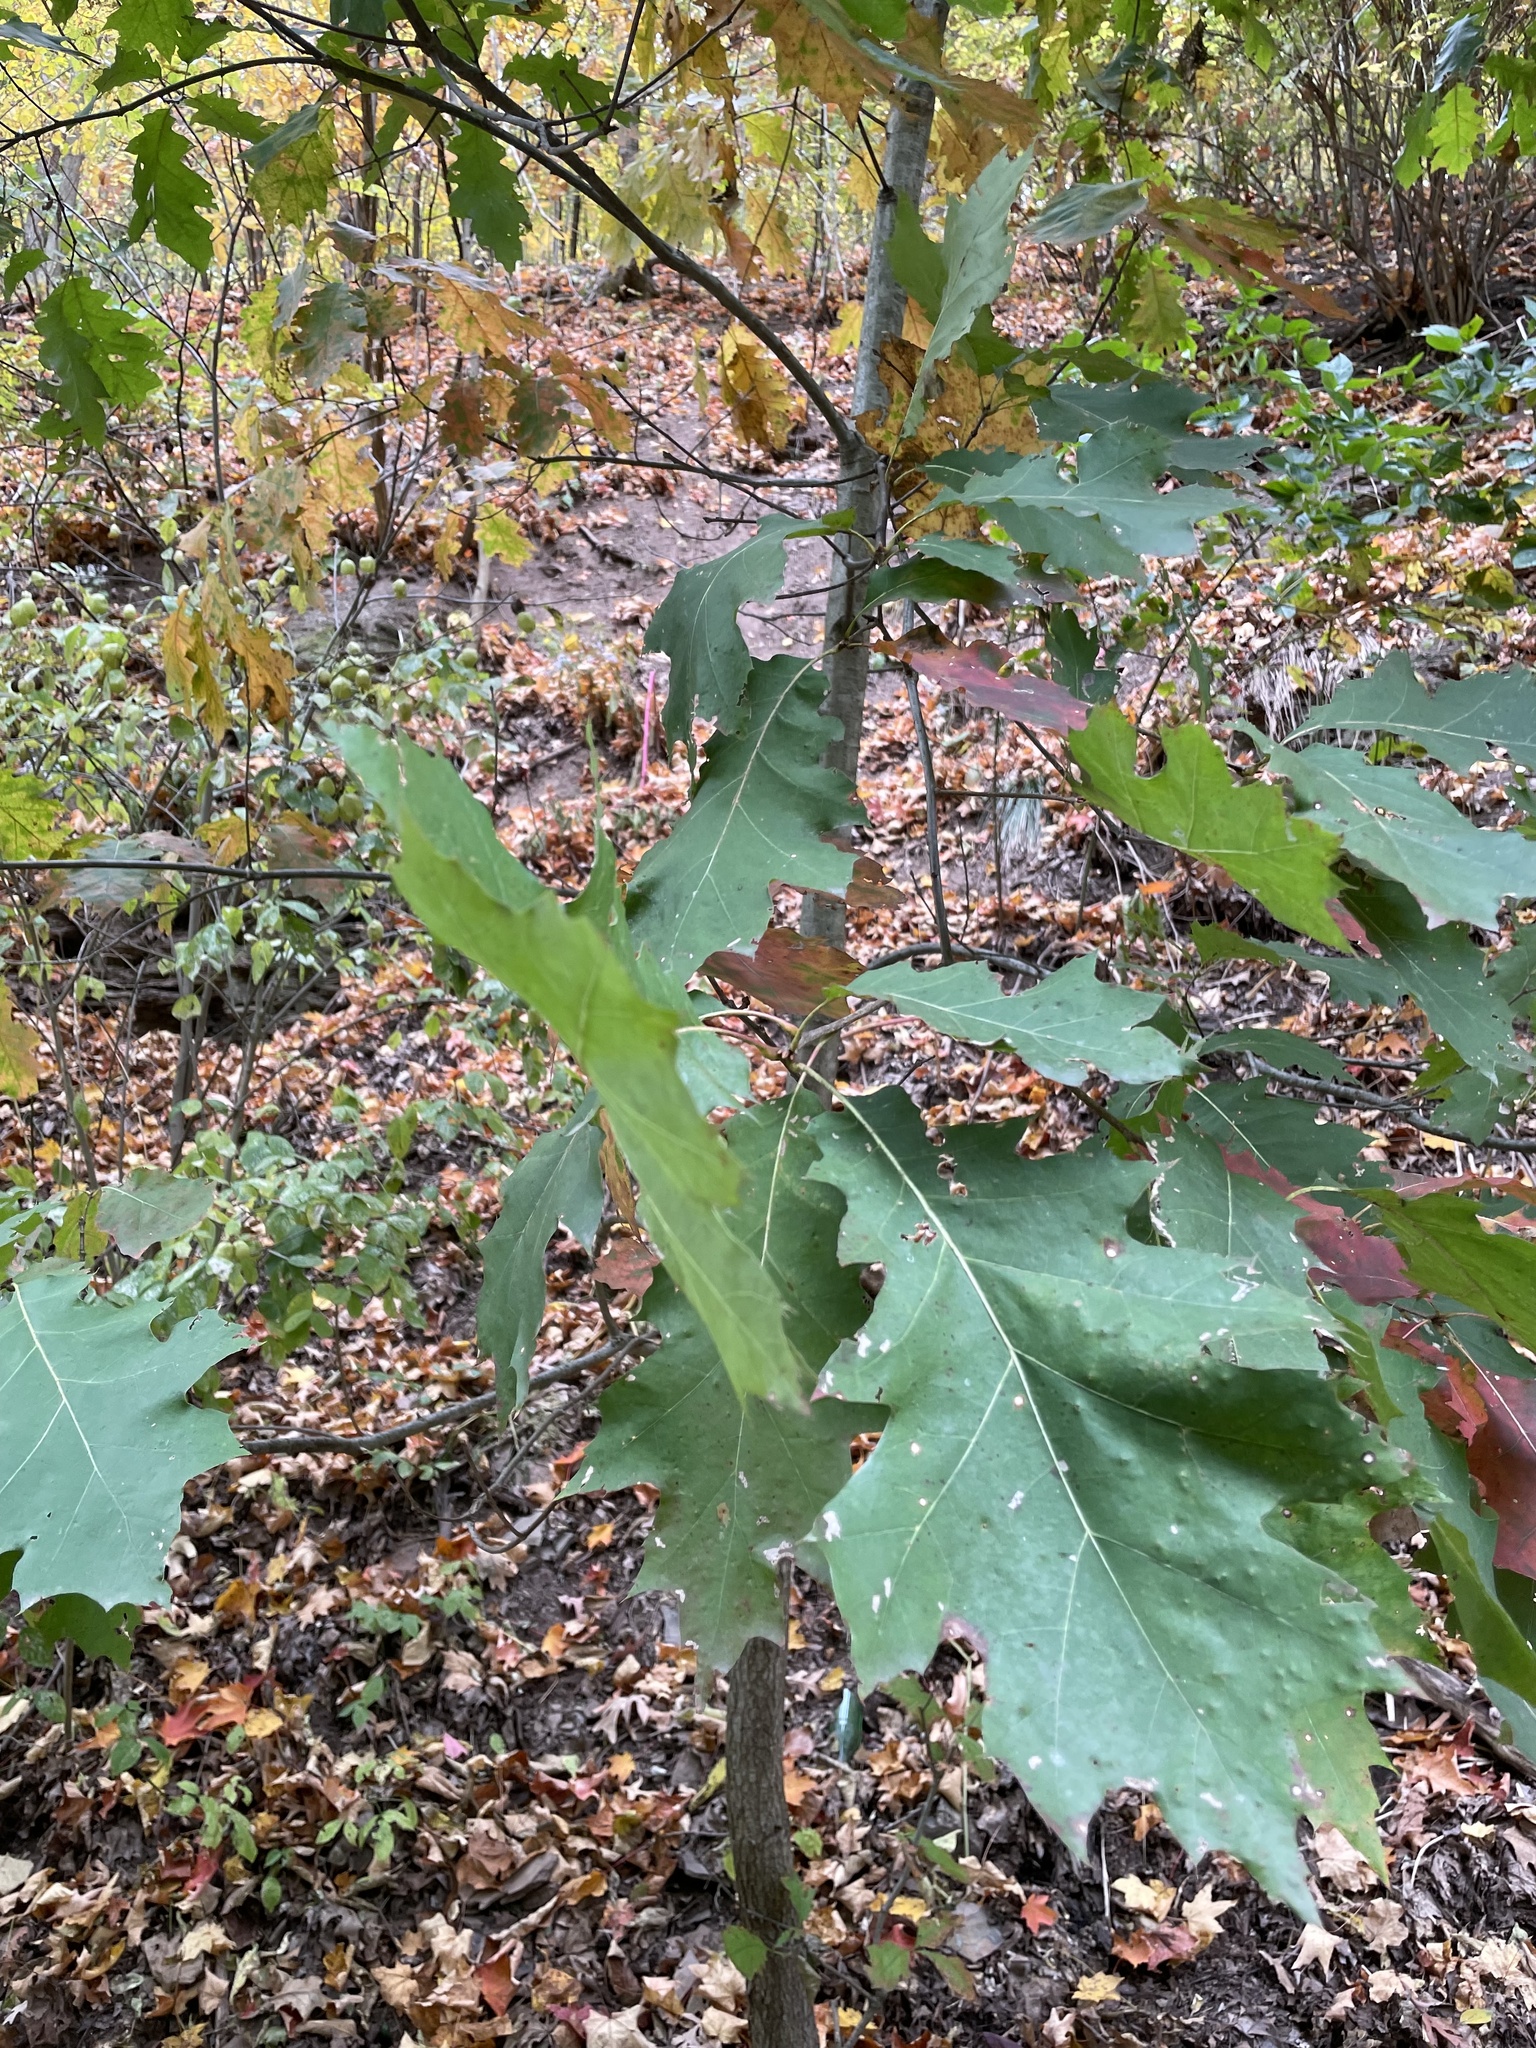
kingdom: Plantae
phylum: Tracheophyta
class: Magnoliopsida
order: Fagales
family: Fagaceae
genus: Quercus
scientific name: Quercus rubra
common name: Red oak
